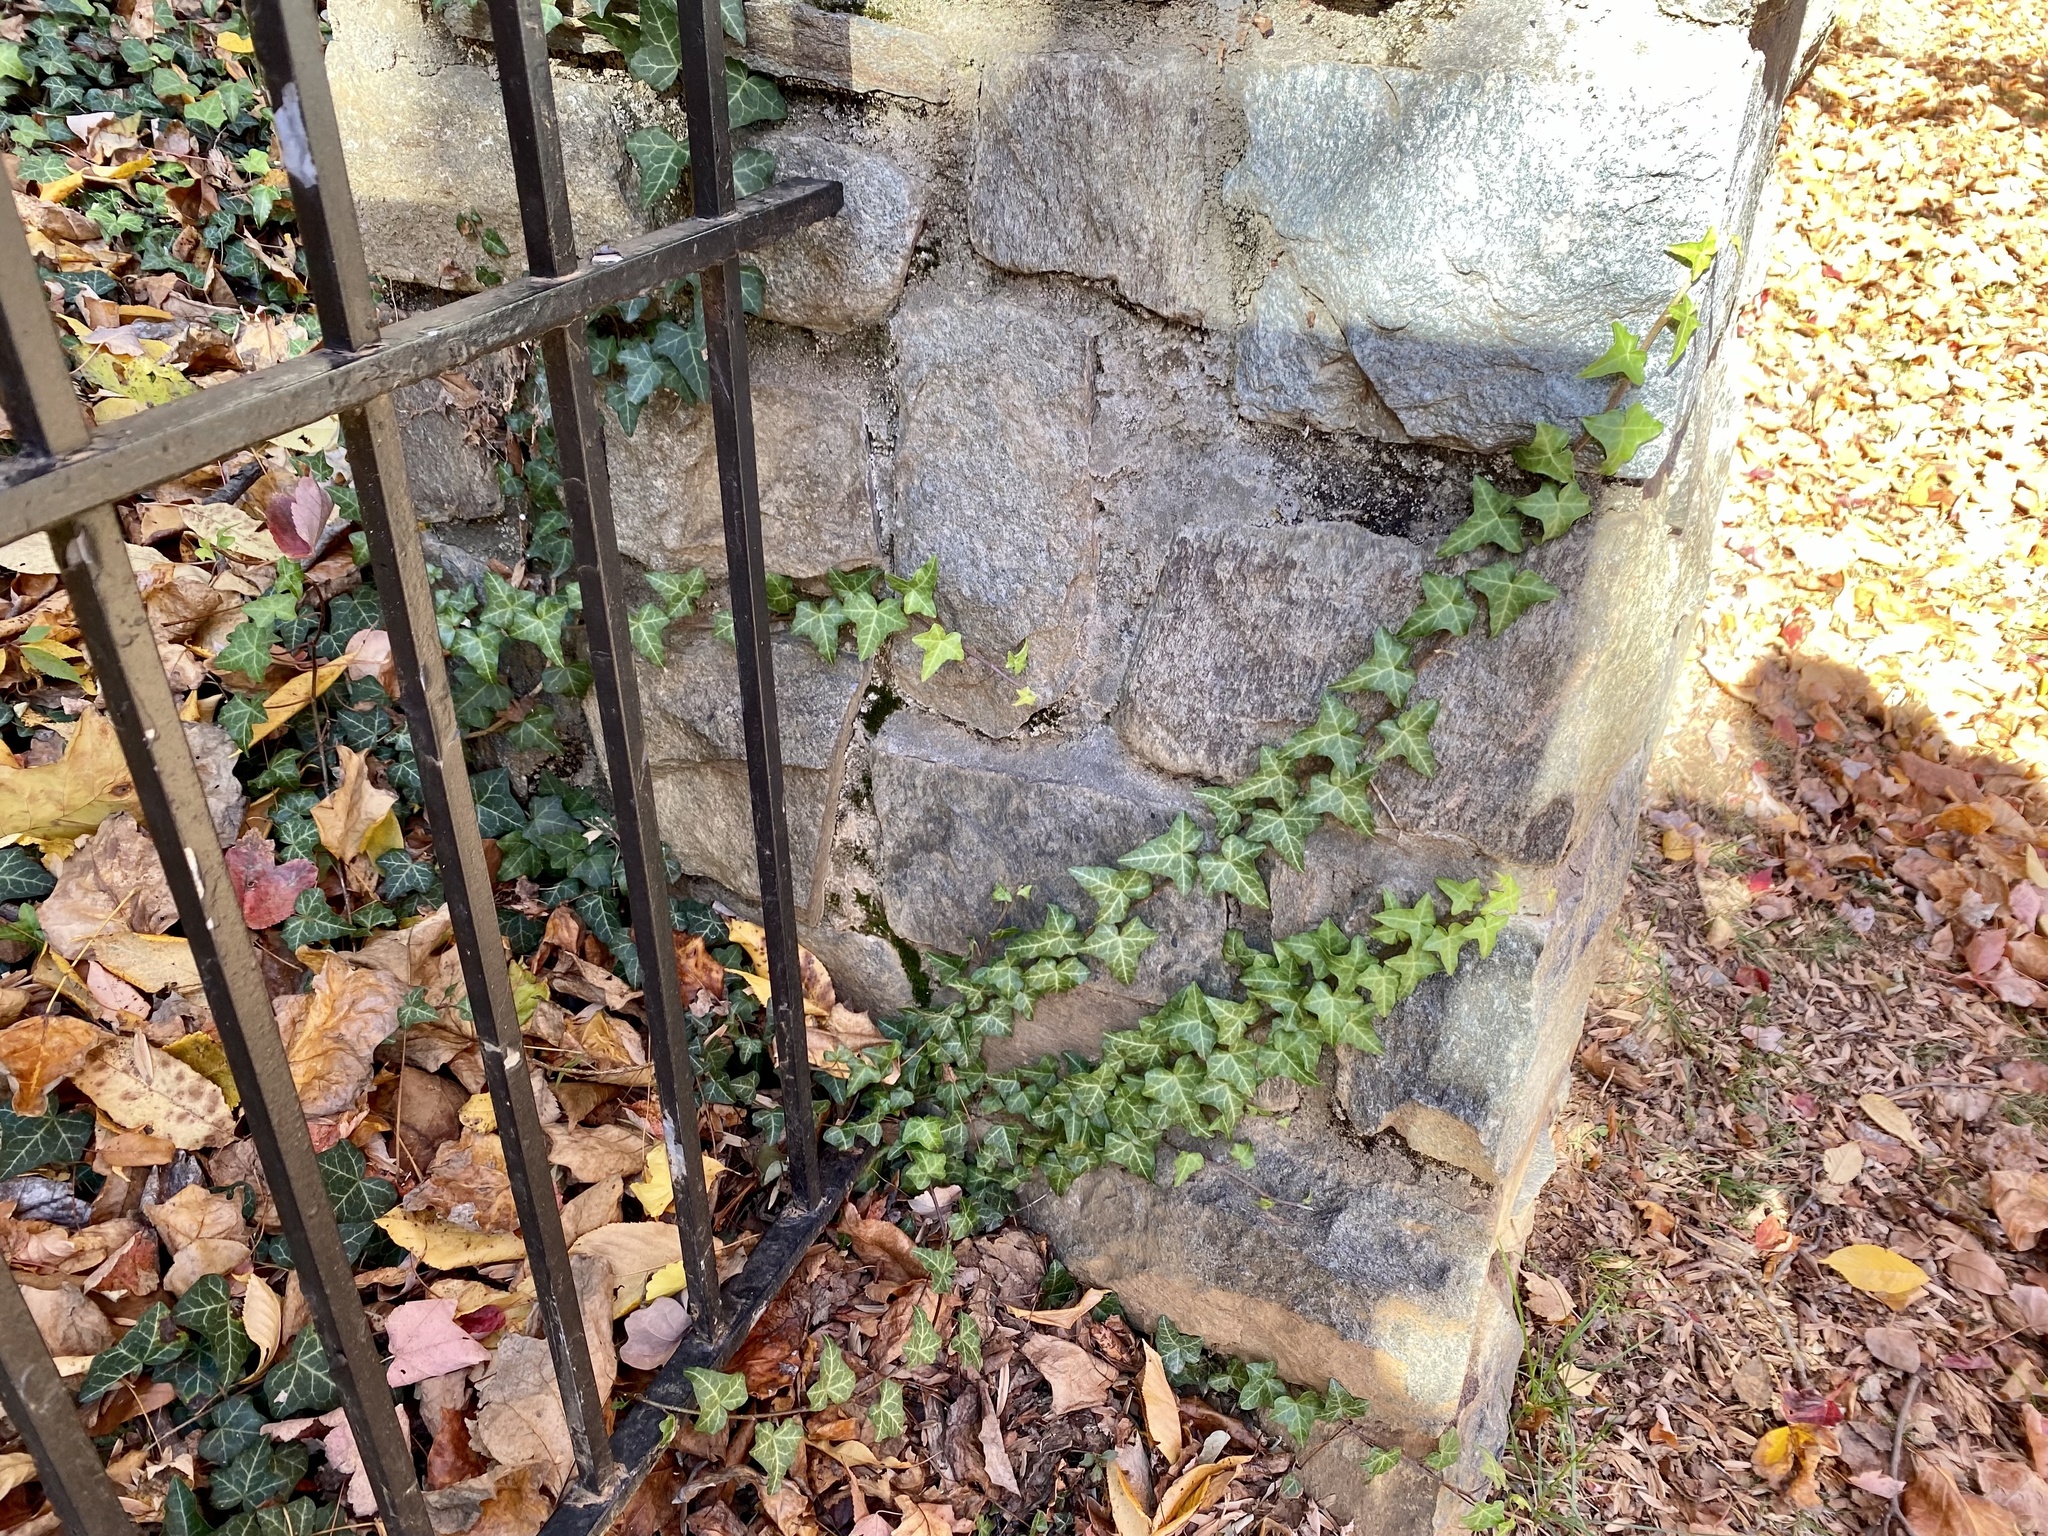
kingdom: Plantae
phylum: Tracheophyta
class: Magnoliopsida
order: Apiales
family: Araliaceae
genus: Hedera
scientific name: Hedera helix
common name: Ivy
